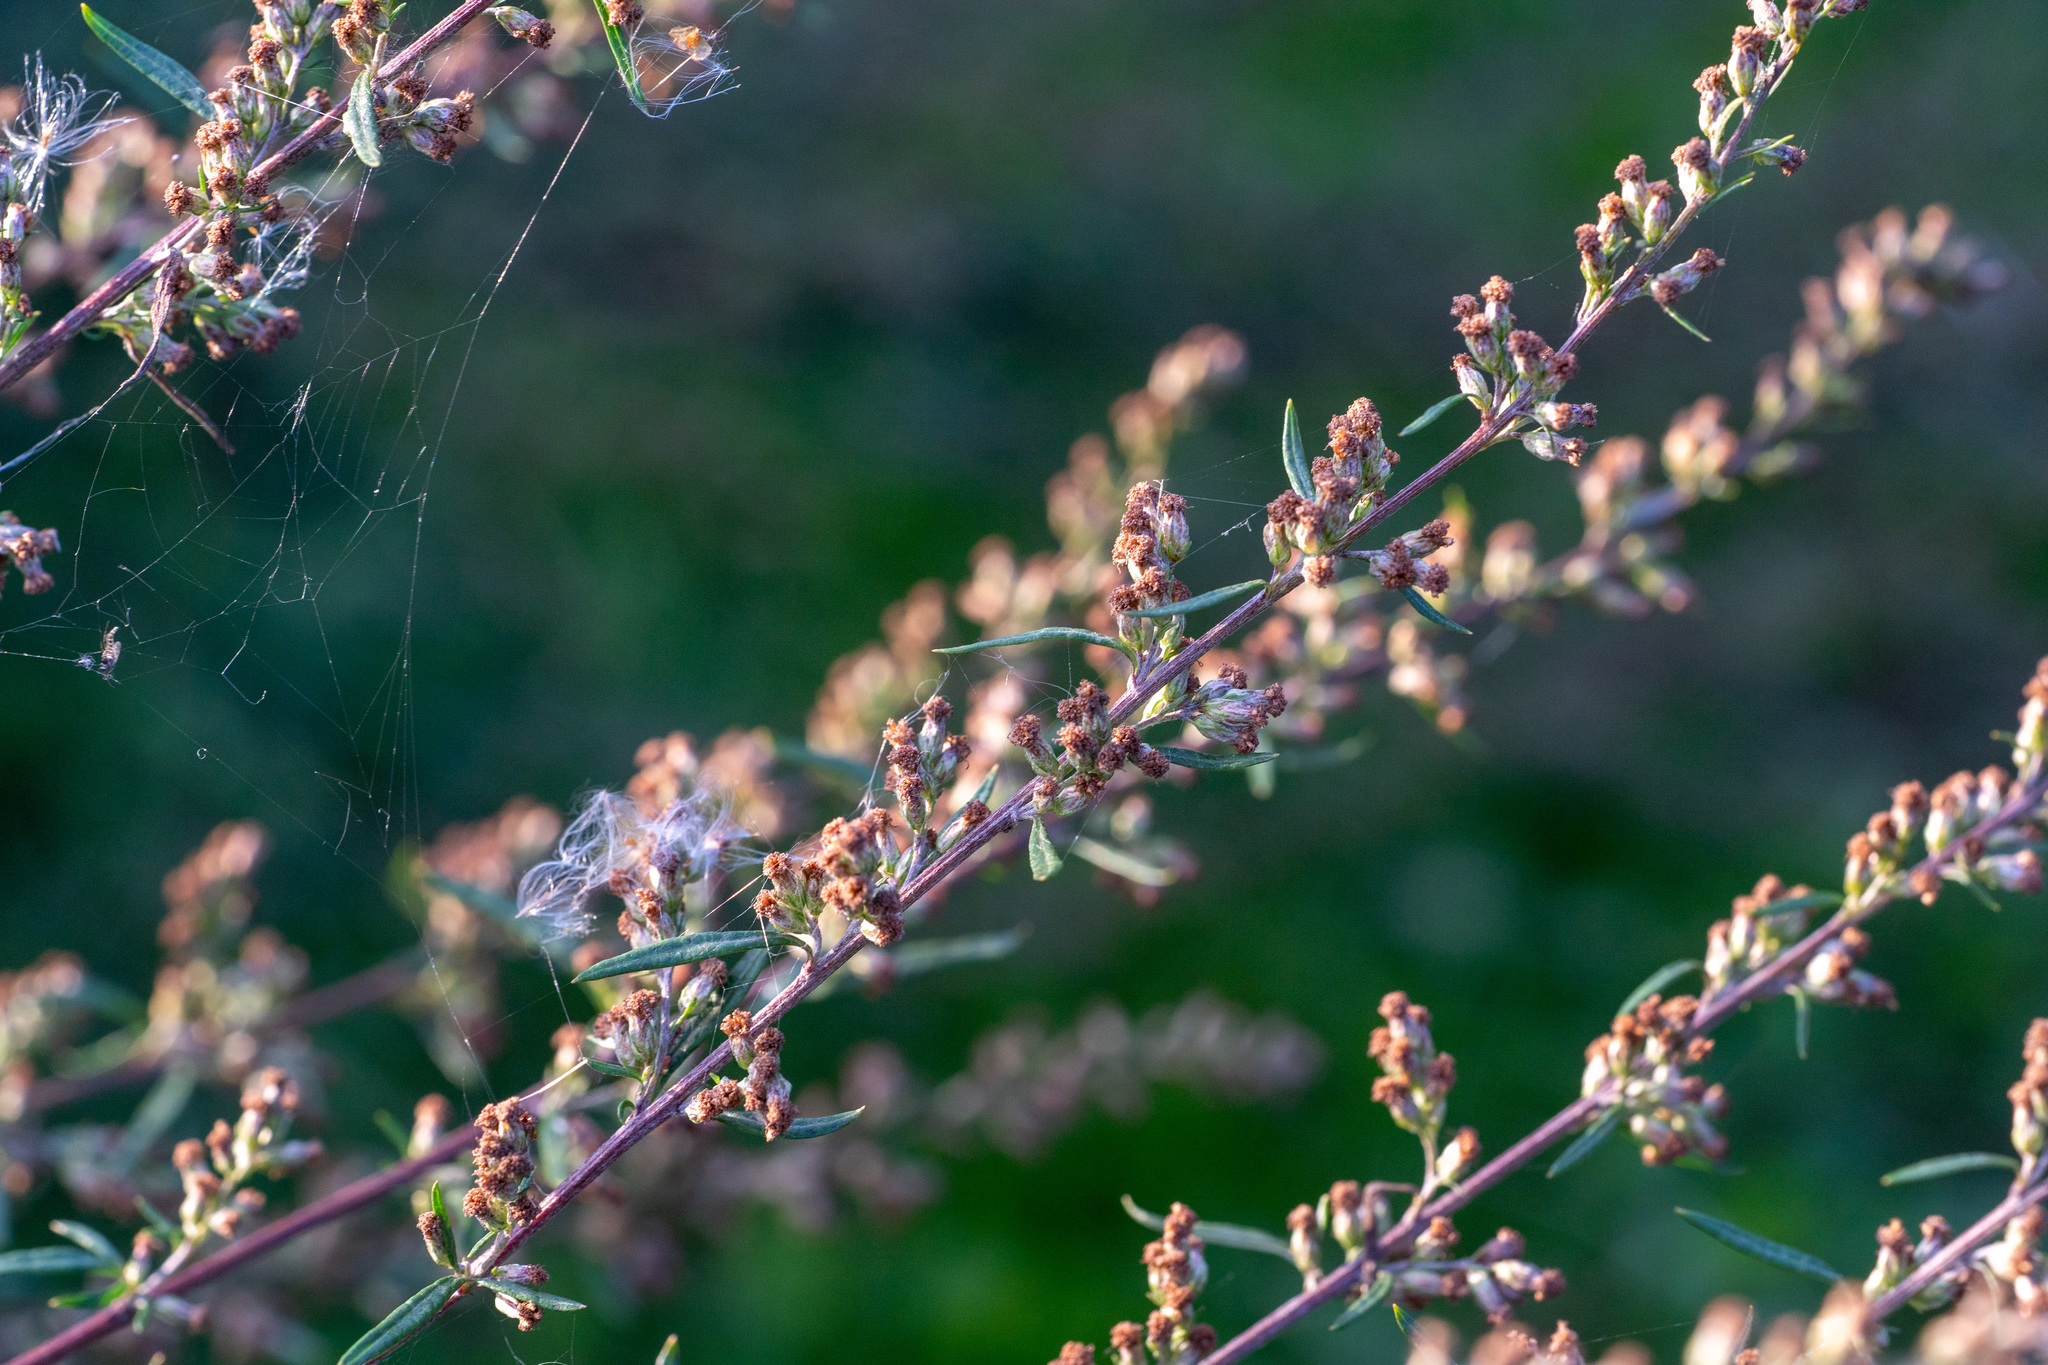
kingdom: Plantae
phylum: Tracheophyta
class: Magnoliopsida
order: Asterales
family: Asteraceae
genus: Artemisia
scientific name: Artemisia vulgaris
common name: Mugwort
